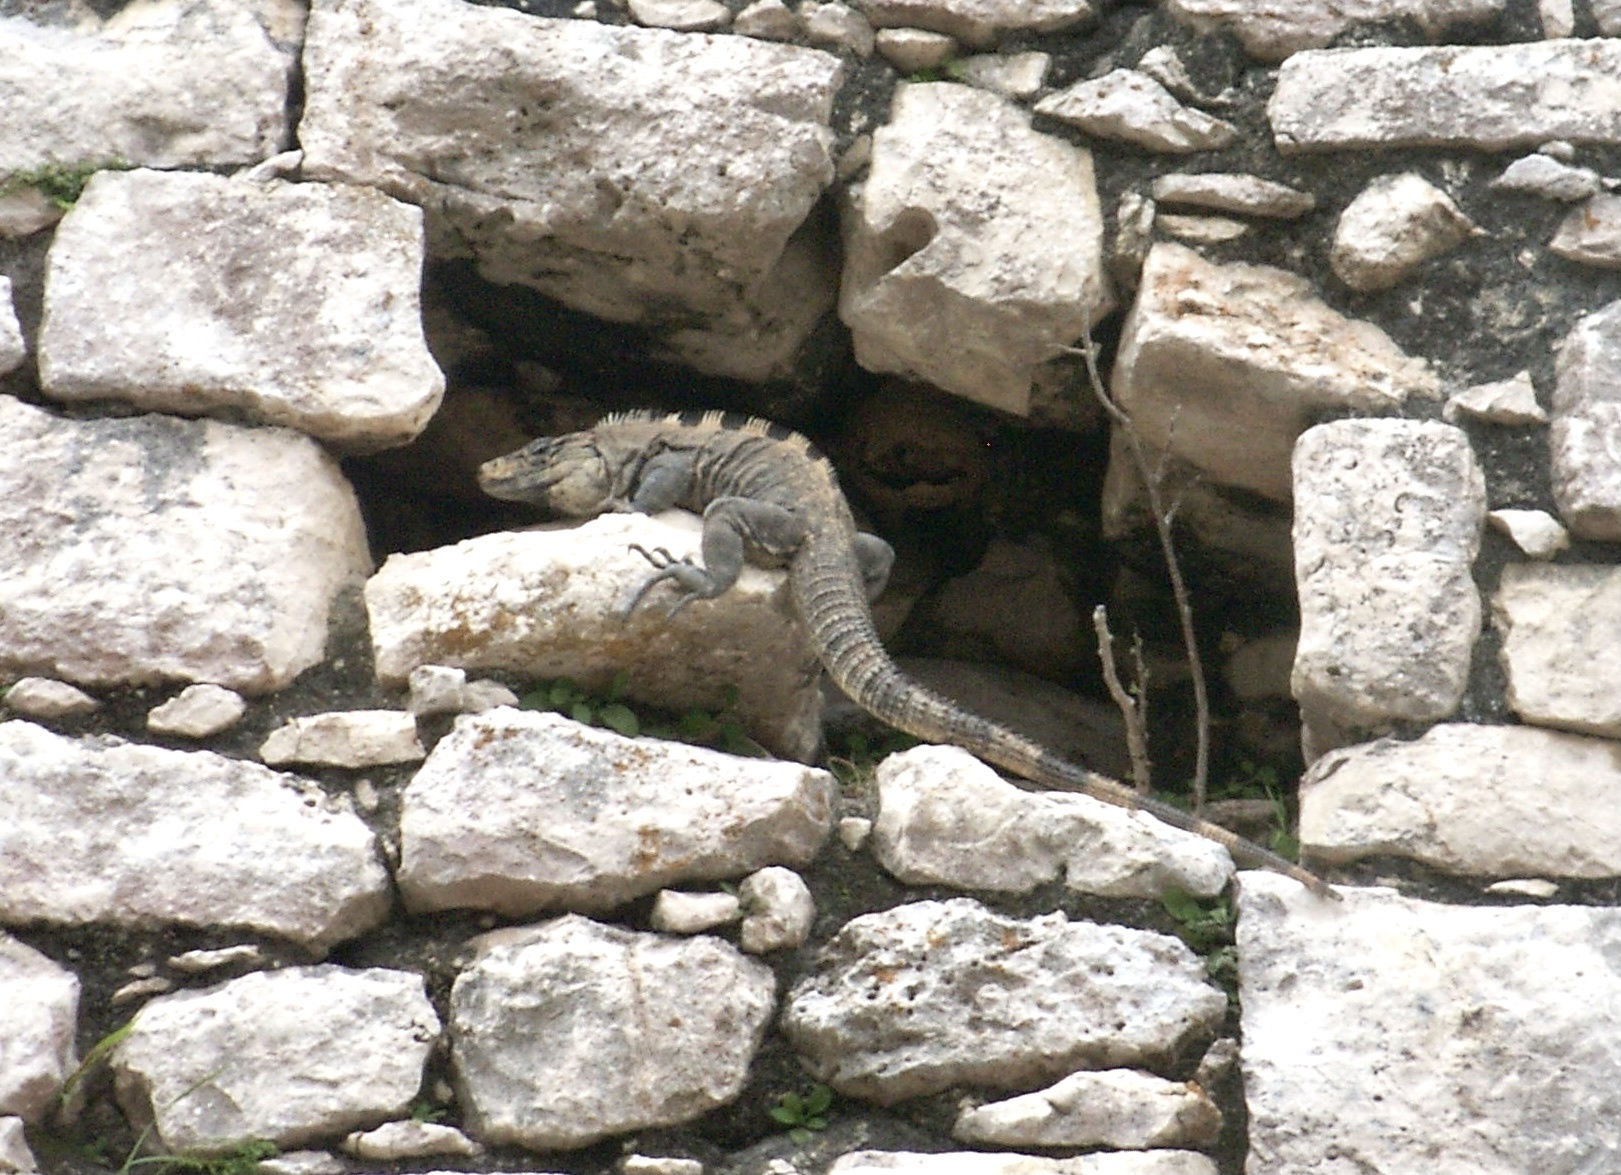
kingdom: Animalia
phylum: Chordata
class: Squamata
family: Iguanidae
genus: Ctenosaura
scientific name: Ctenosaura similis
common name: Black spiny-tailed iguana
